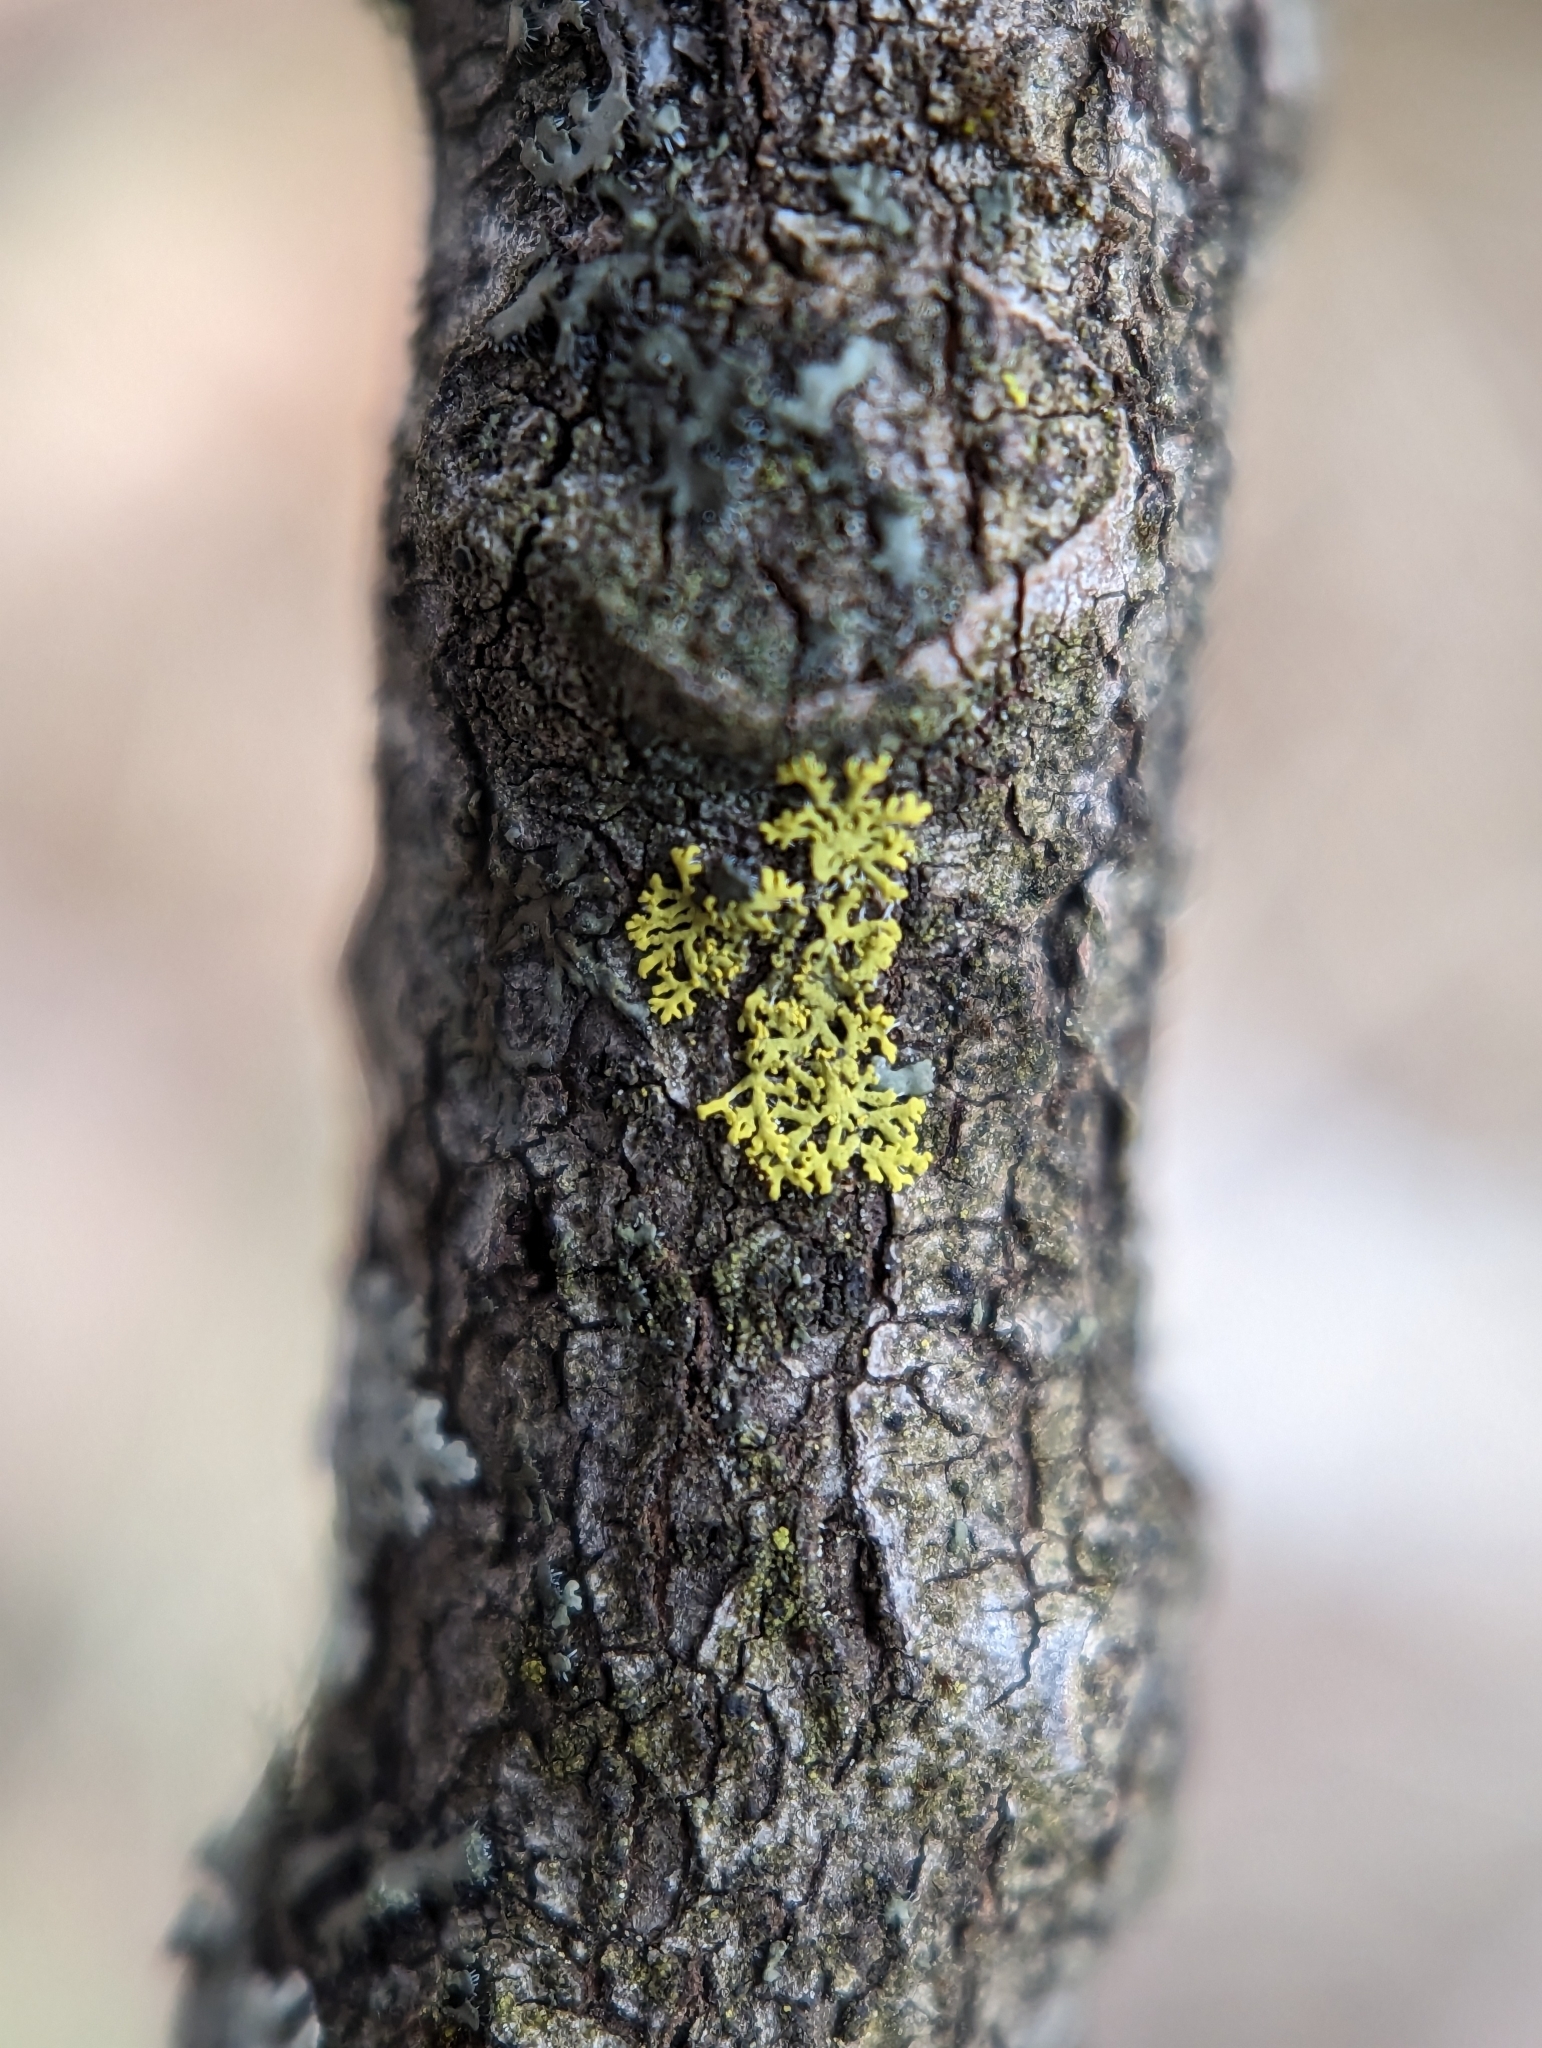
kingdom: Fungi
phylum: Ascomycota
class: Candelariomycetes
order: Candelariales
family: Candelariaceae
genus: Candelaria
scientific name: Candelaria concolor
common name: Candleflame lichen
